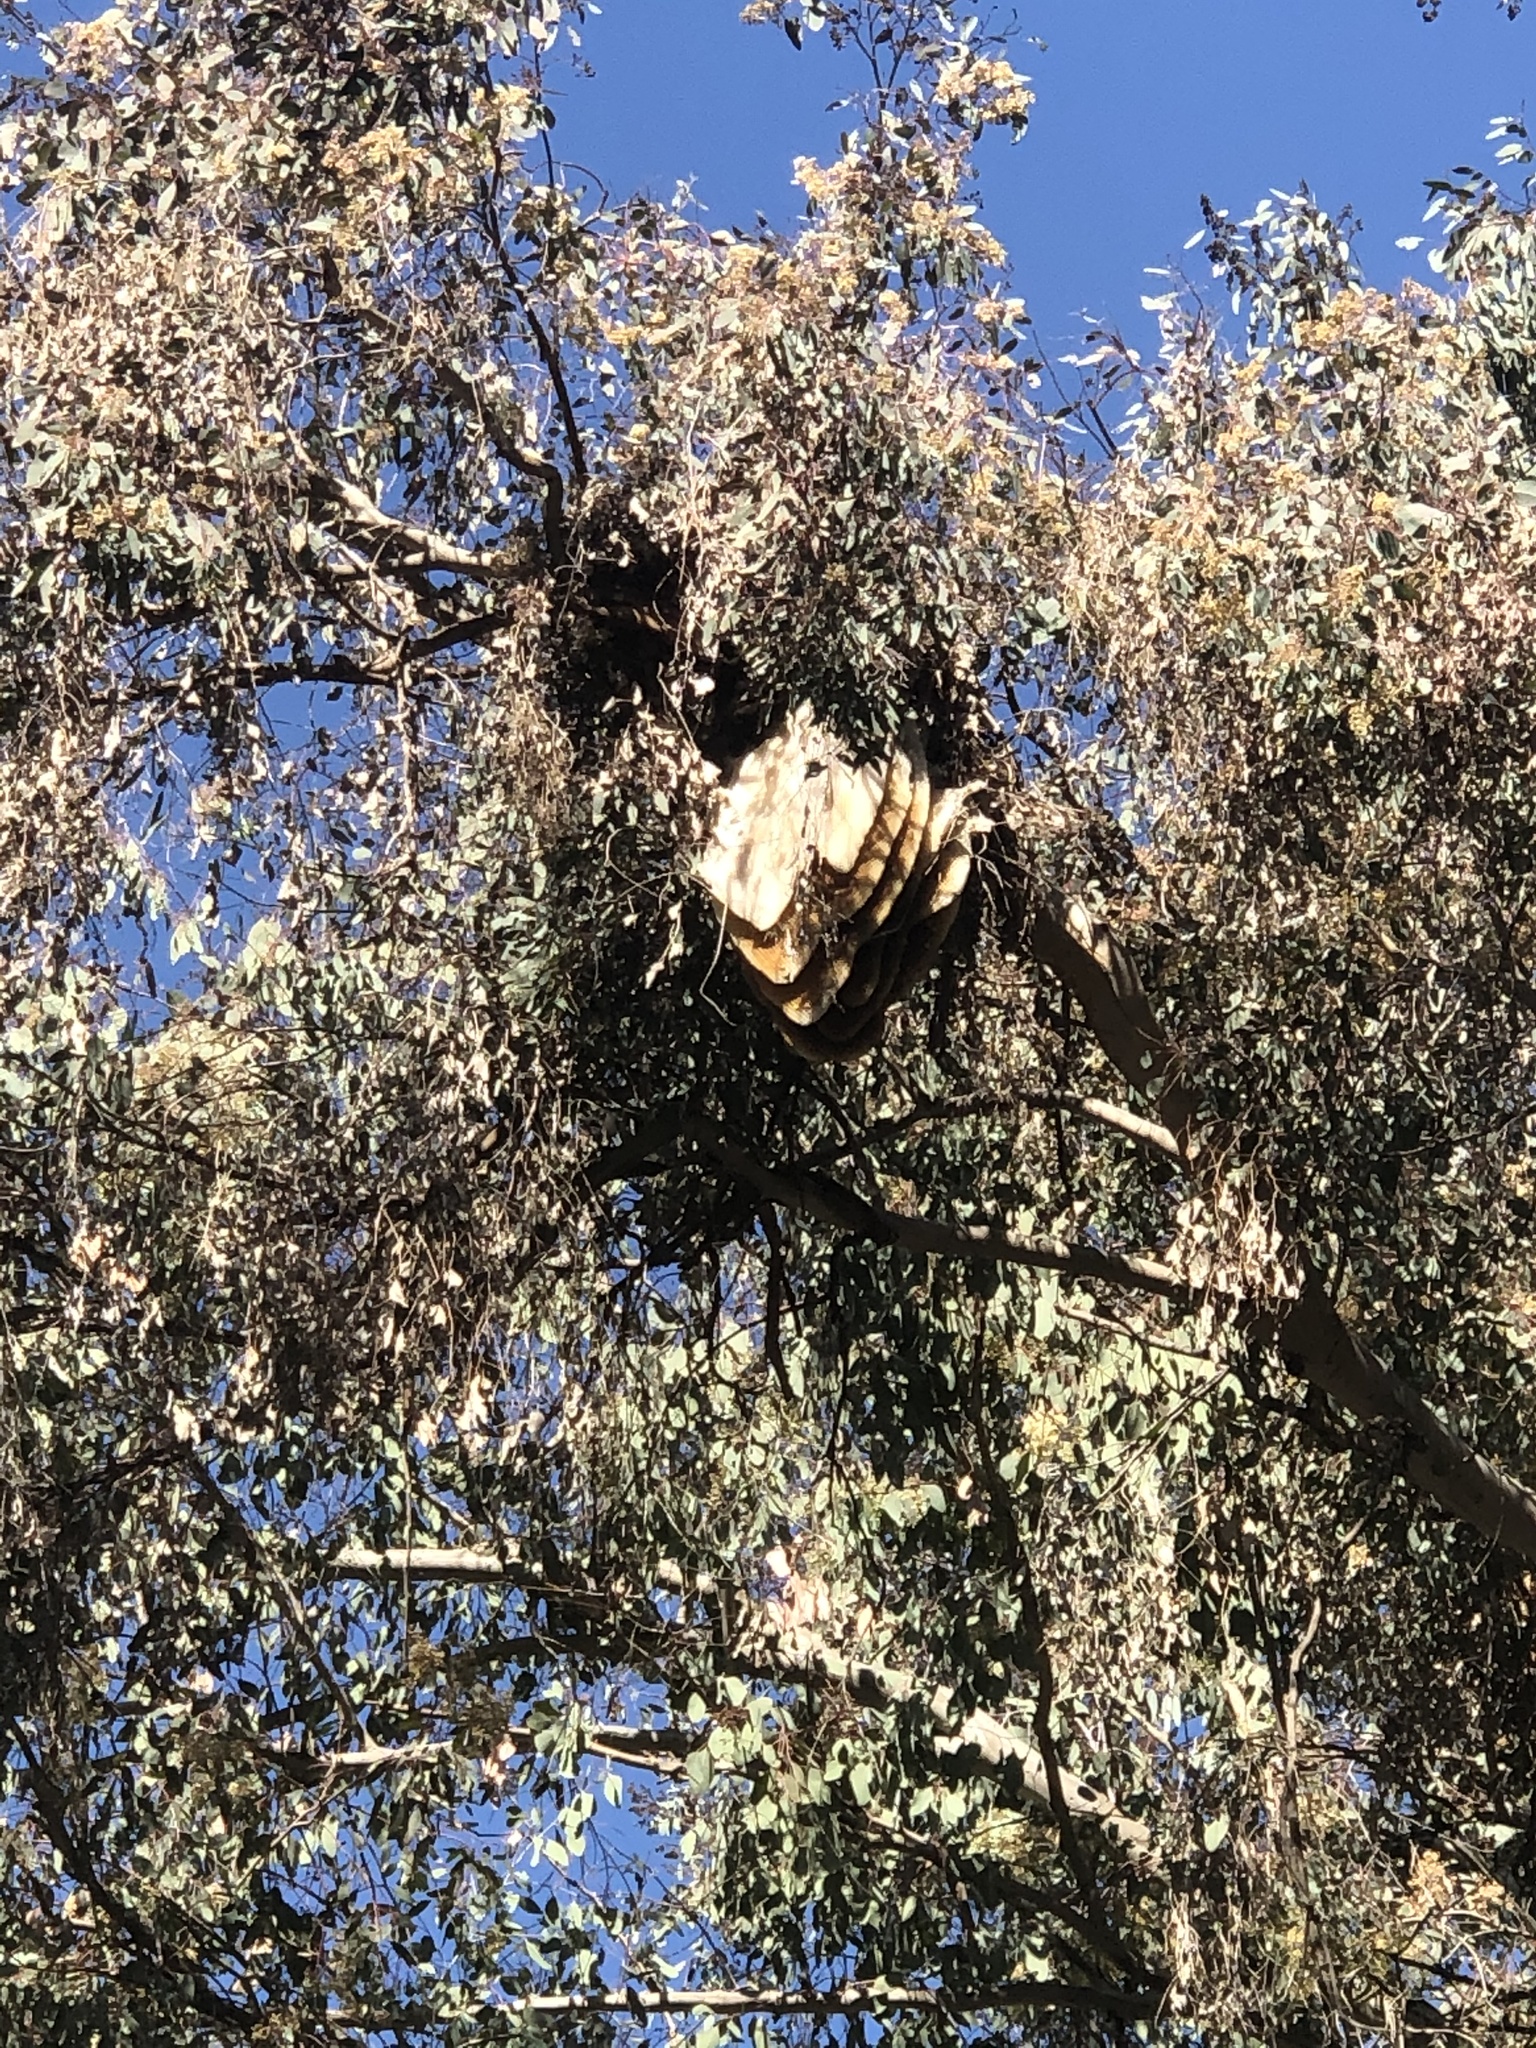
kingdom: Animalia
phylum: Arthropoda
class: Insecta
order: Hymenoptera
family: Apidae
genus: Apis
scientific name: Apis mellifera
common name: Honey bee
